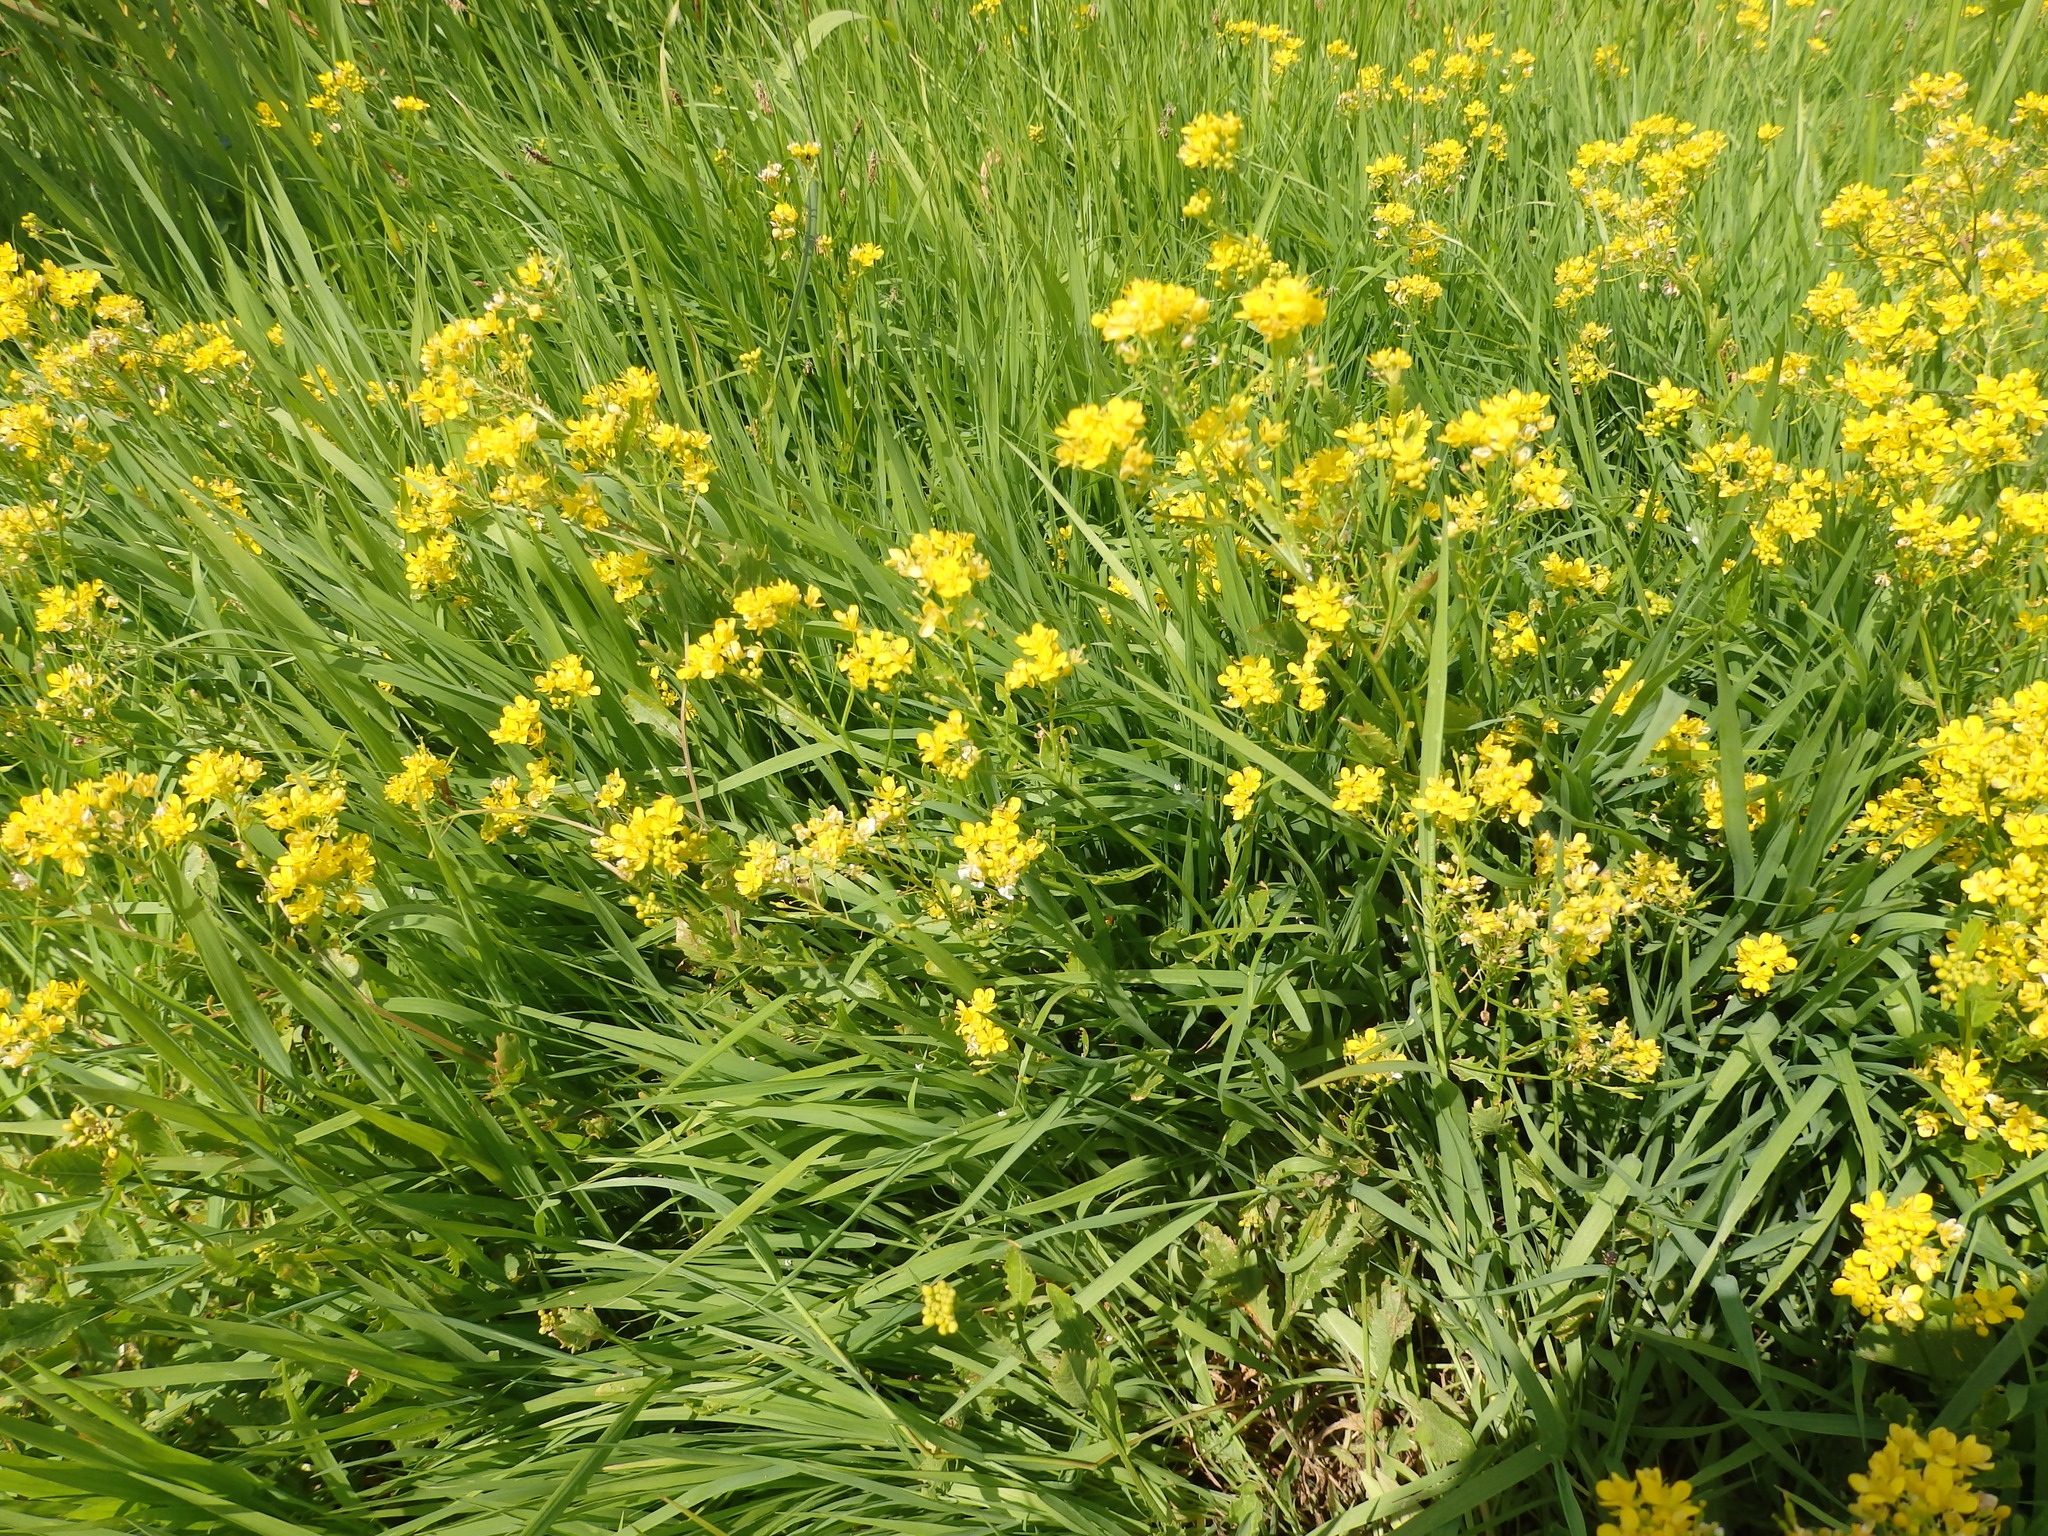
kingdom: Plantae
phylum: Tracheophyta
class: Magnoliopsida
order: Brassicales
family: Brassicaceae
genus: Rorippa
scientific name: Rorippa anceps
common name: Rorippa
